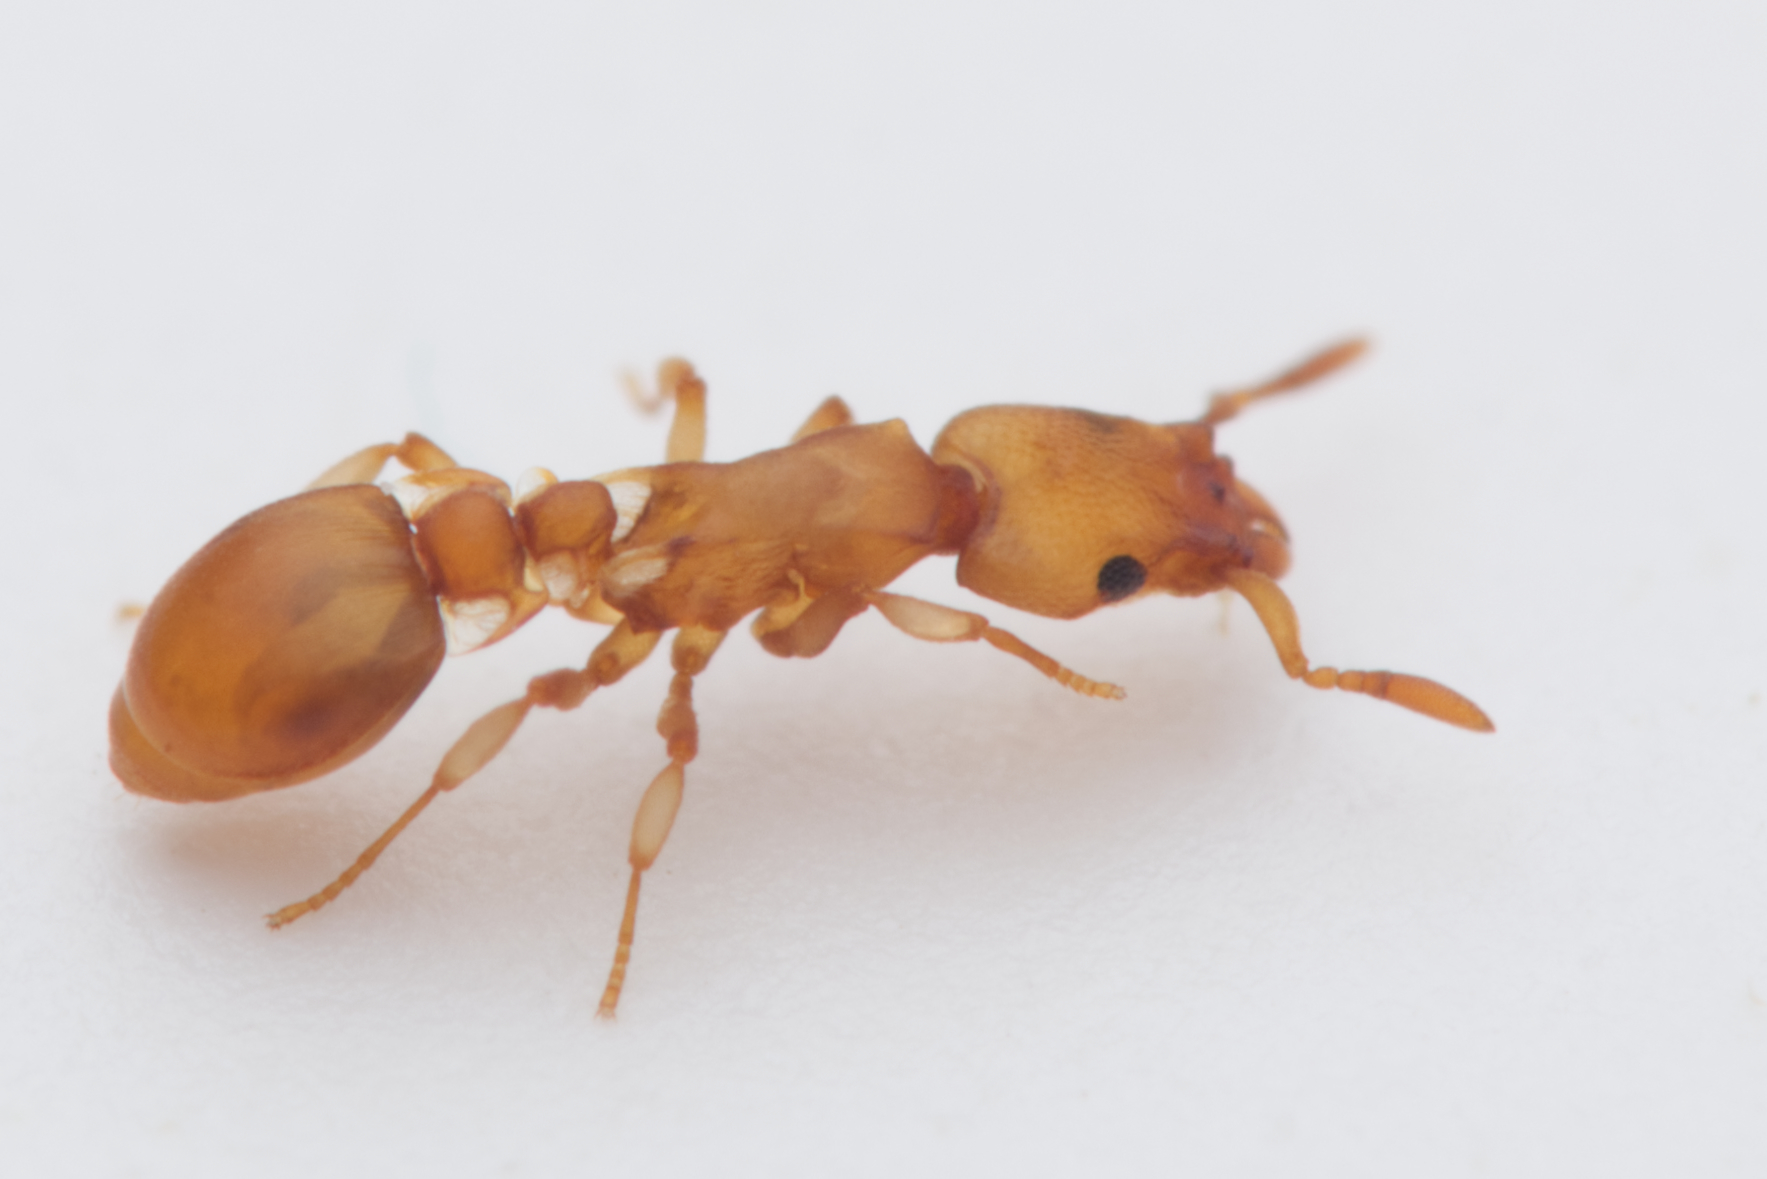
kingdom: Animalia
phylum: Arthropoda
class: Insecta
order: Hymenoptera
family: Formicidae
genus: Colobostruma
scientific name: Colobostruma
